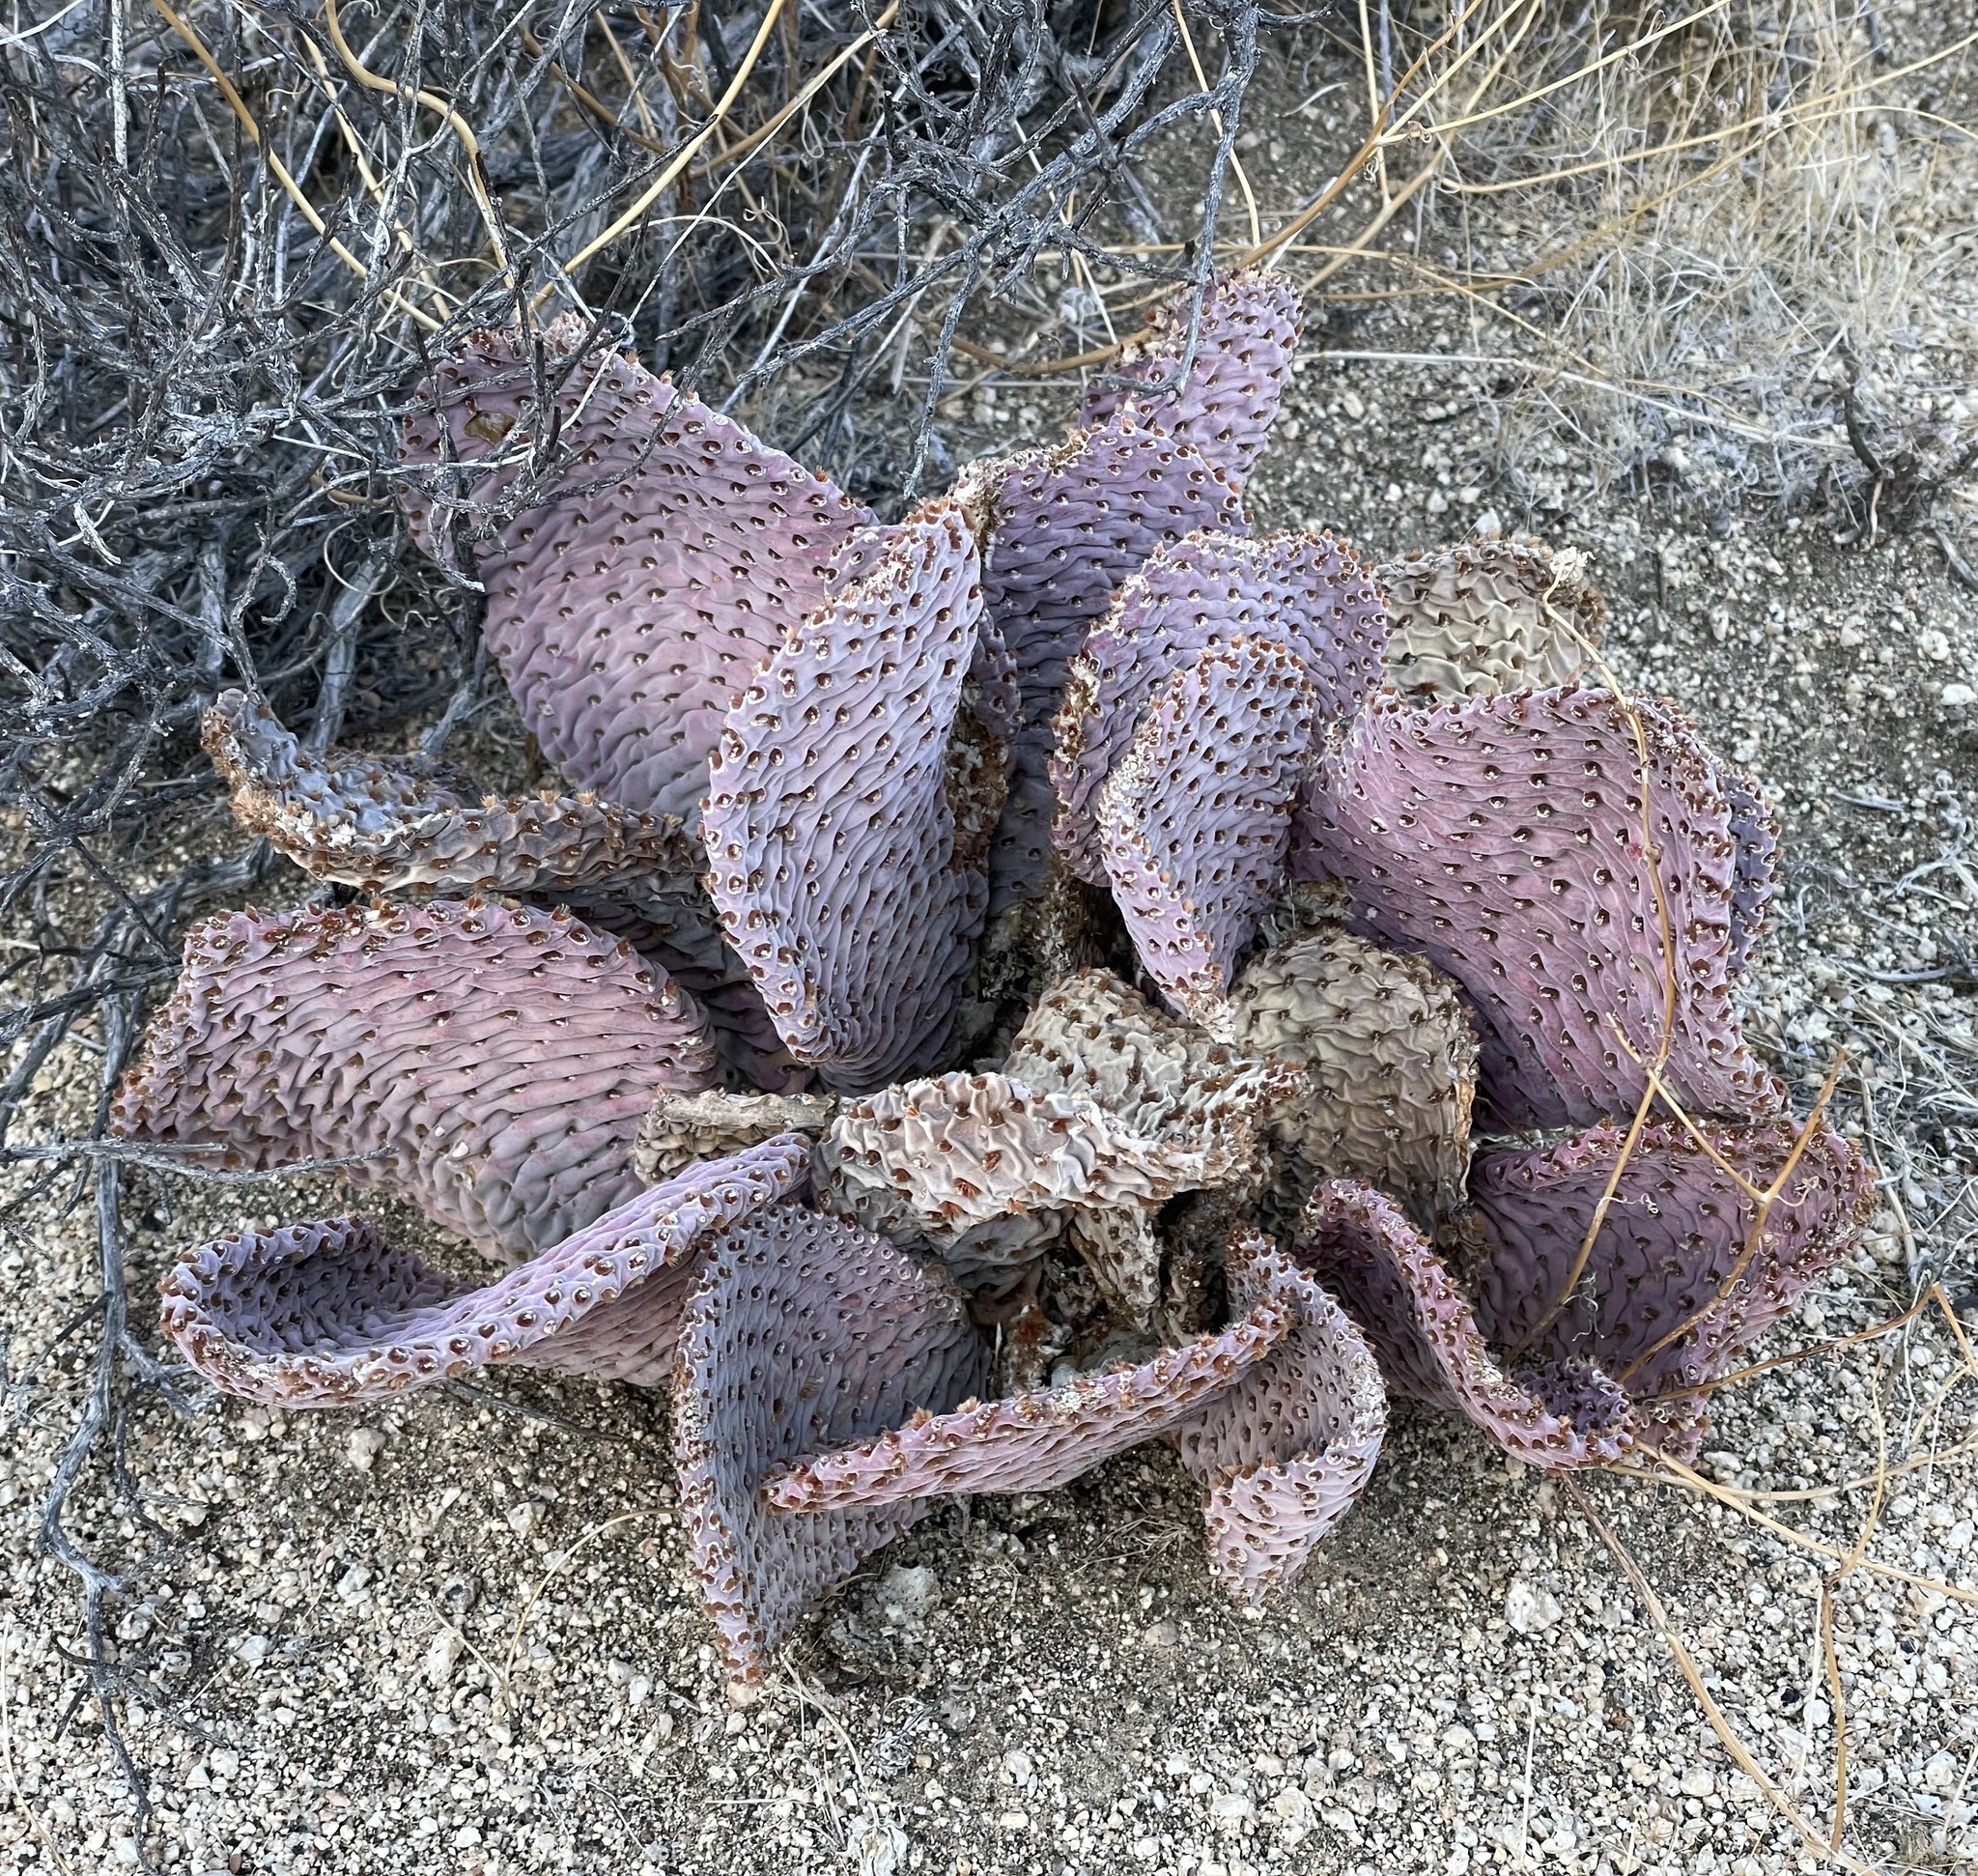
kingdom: Plantae
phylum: Tracheophyta
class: Magnoliopsida
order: Caryophyllales
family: Cactaceae
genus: Opuntia
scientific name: Opuntia basilaris
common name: Beavertail prickly-pear
